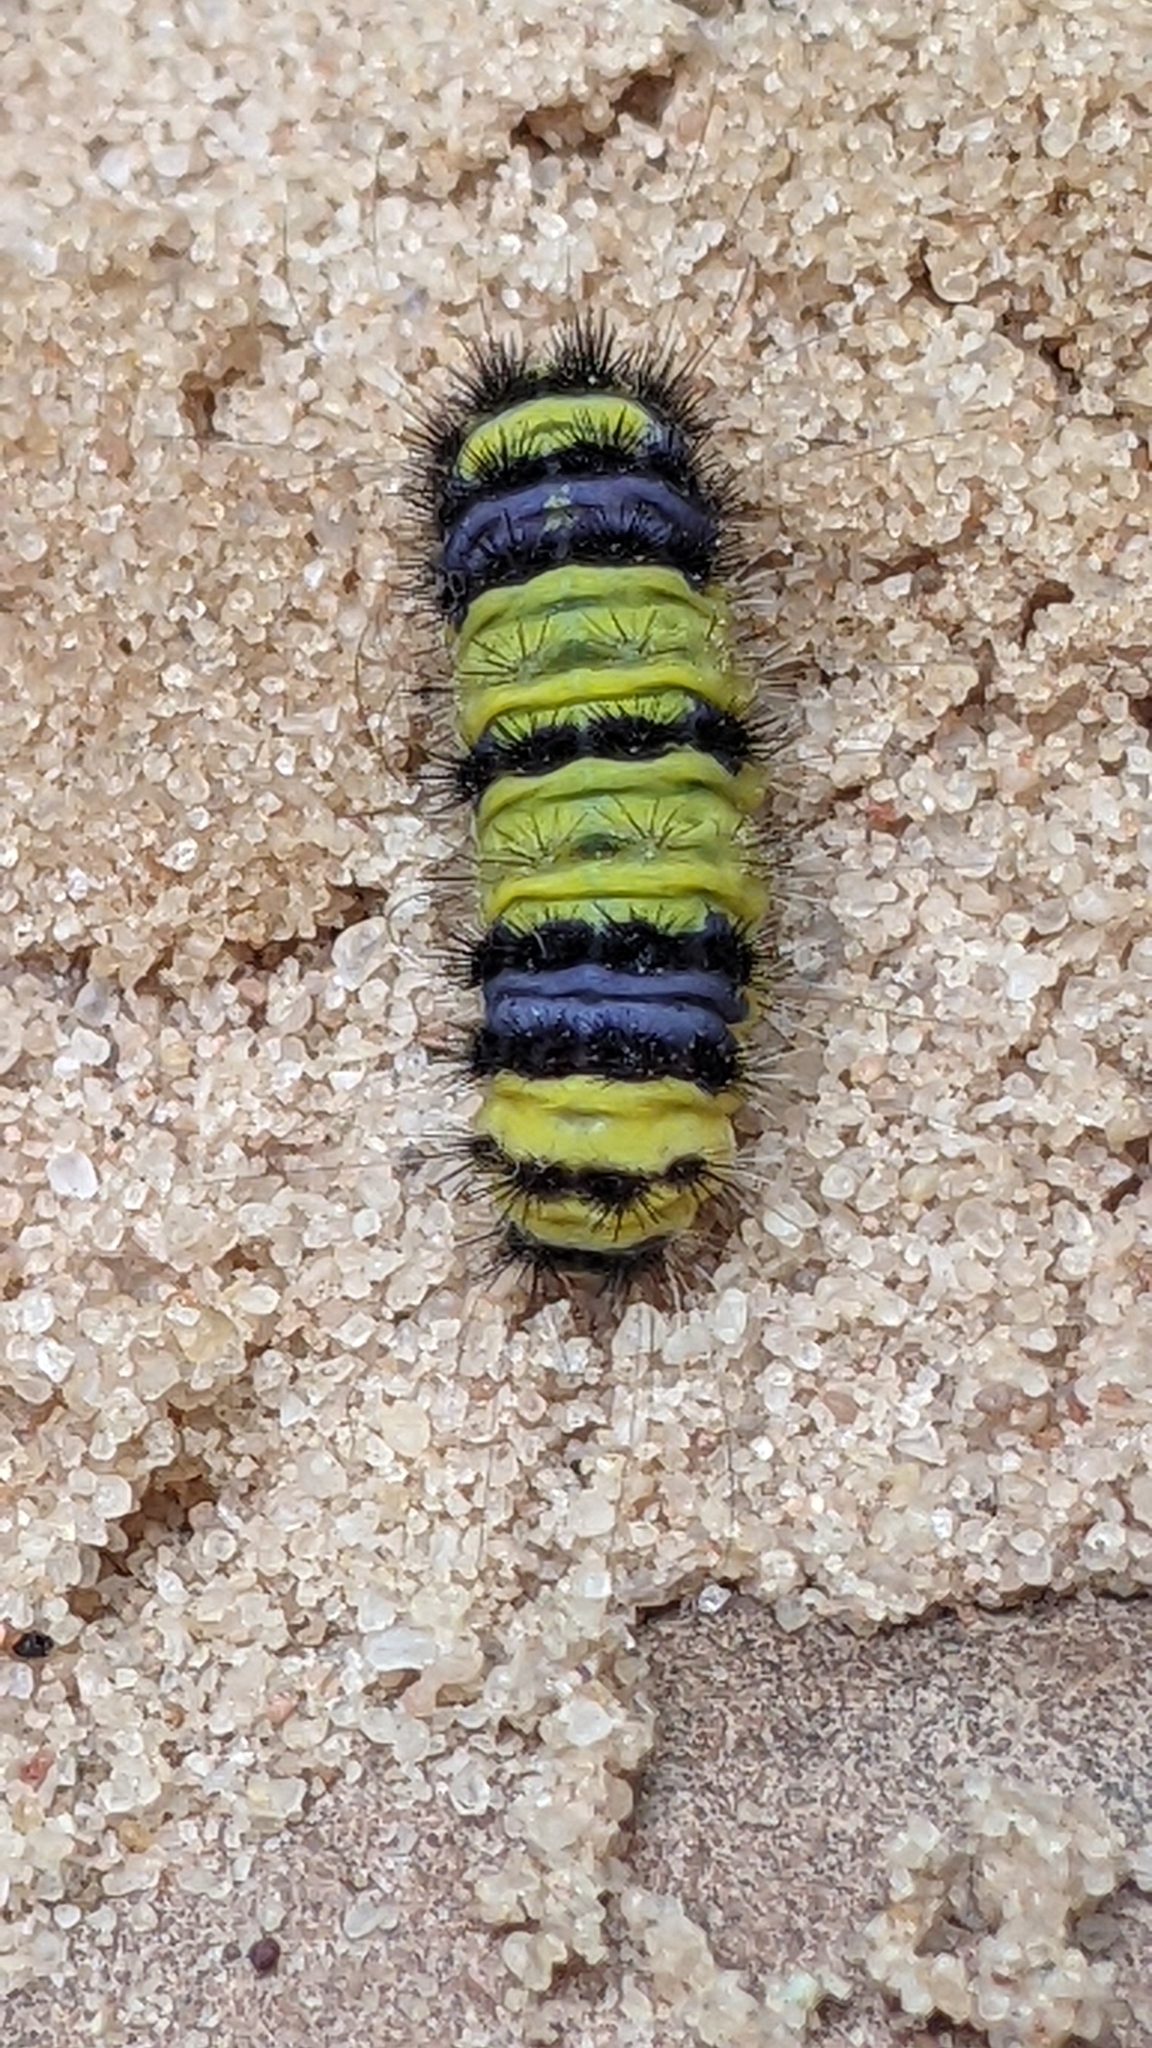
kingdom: Animalia
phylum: Arthropoda
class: Insecta
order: Lepidoptera
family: Zygaenidae
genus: Harrisina
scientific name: Harrisina metallica
